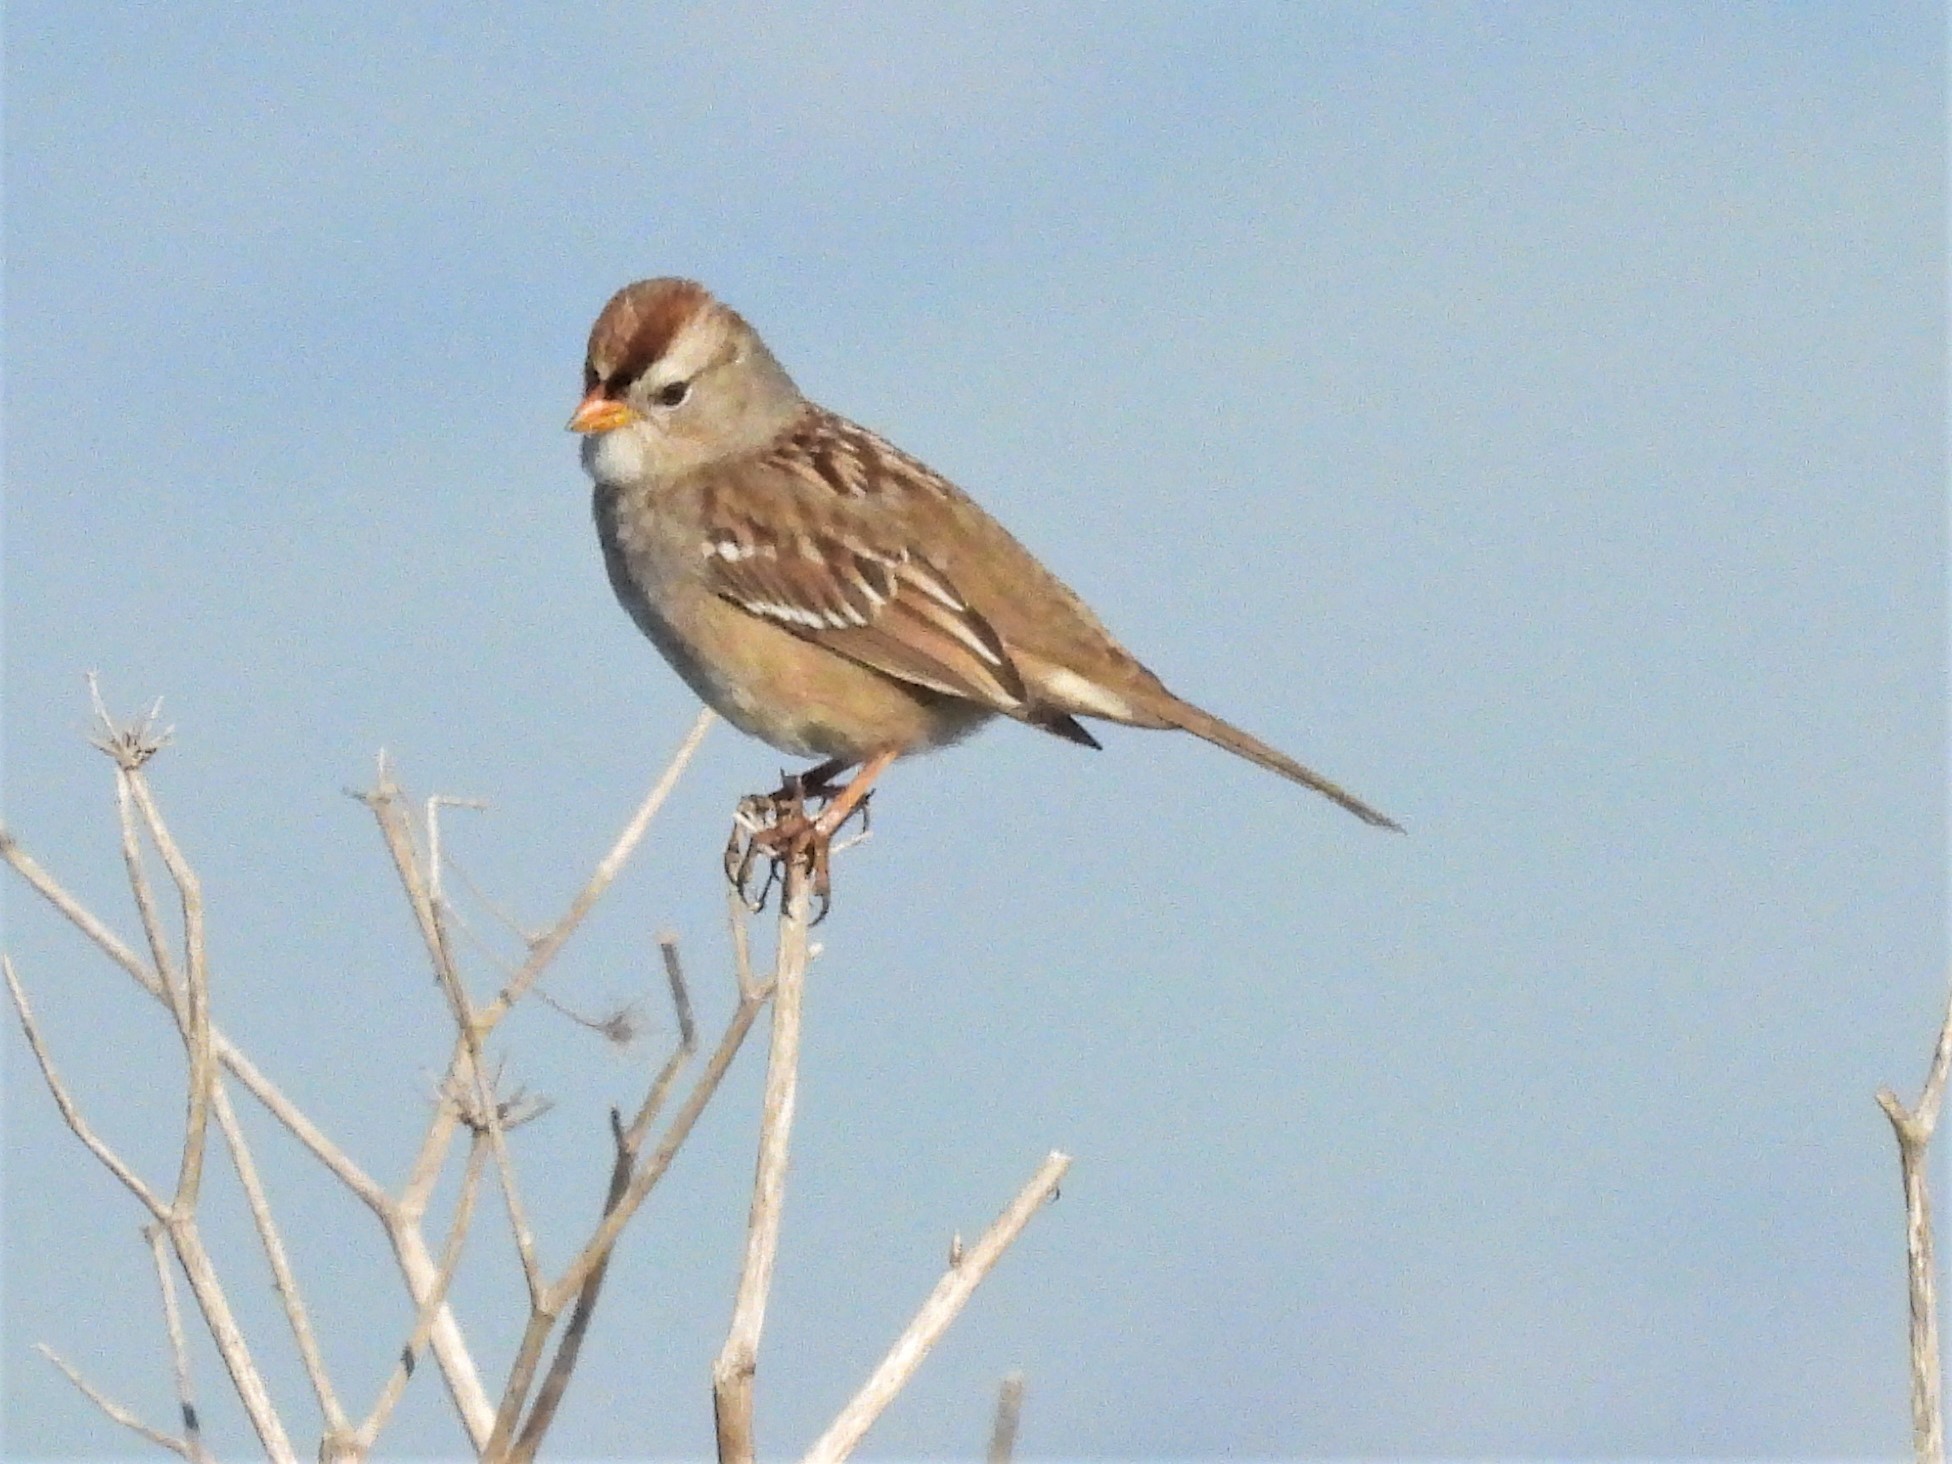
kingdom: Animalia
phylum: Chordata
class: Aves
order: Passeriformes
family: Passerellidae
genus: Zonotrichia
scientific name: Zonotrichia leucophrys
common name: White-crowned sparrow
